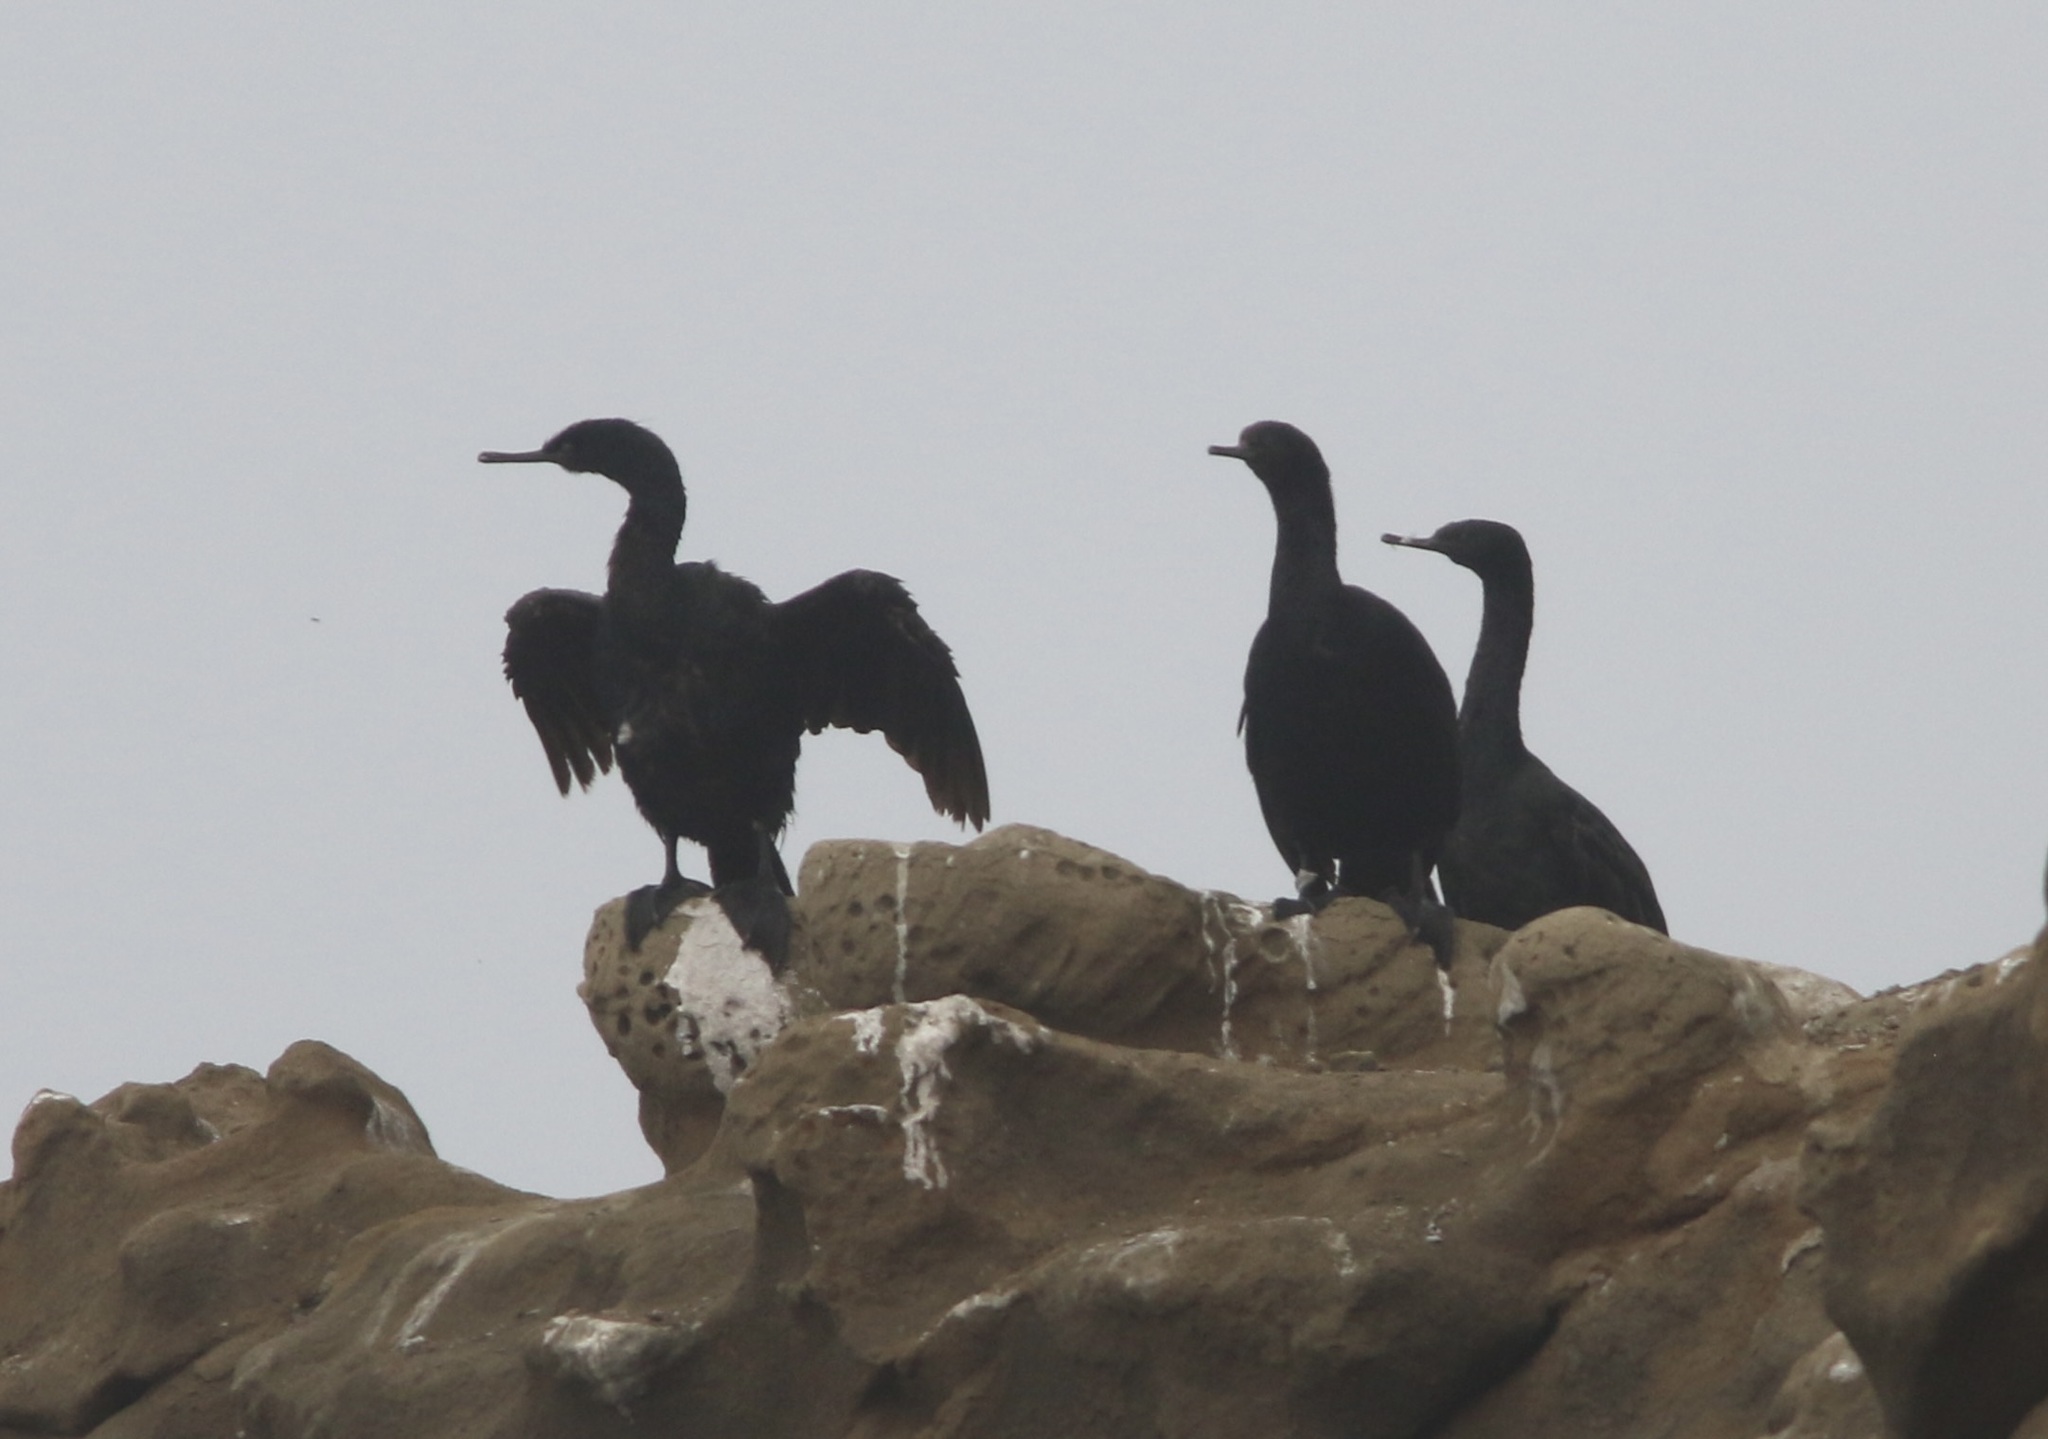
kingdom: Animalia
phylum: Chordata
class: Aves
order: Suliformes
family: Phalacrocoracidae
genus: Phalacrocorax
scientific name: Phalacrocorax pelagicus
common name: Pelagic cormorant
